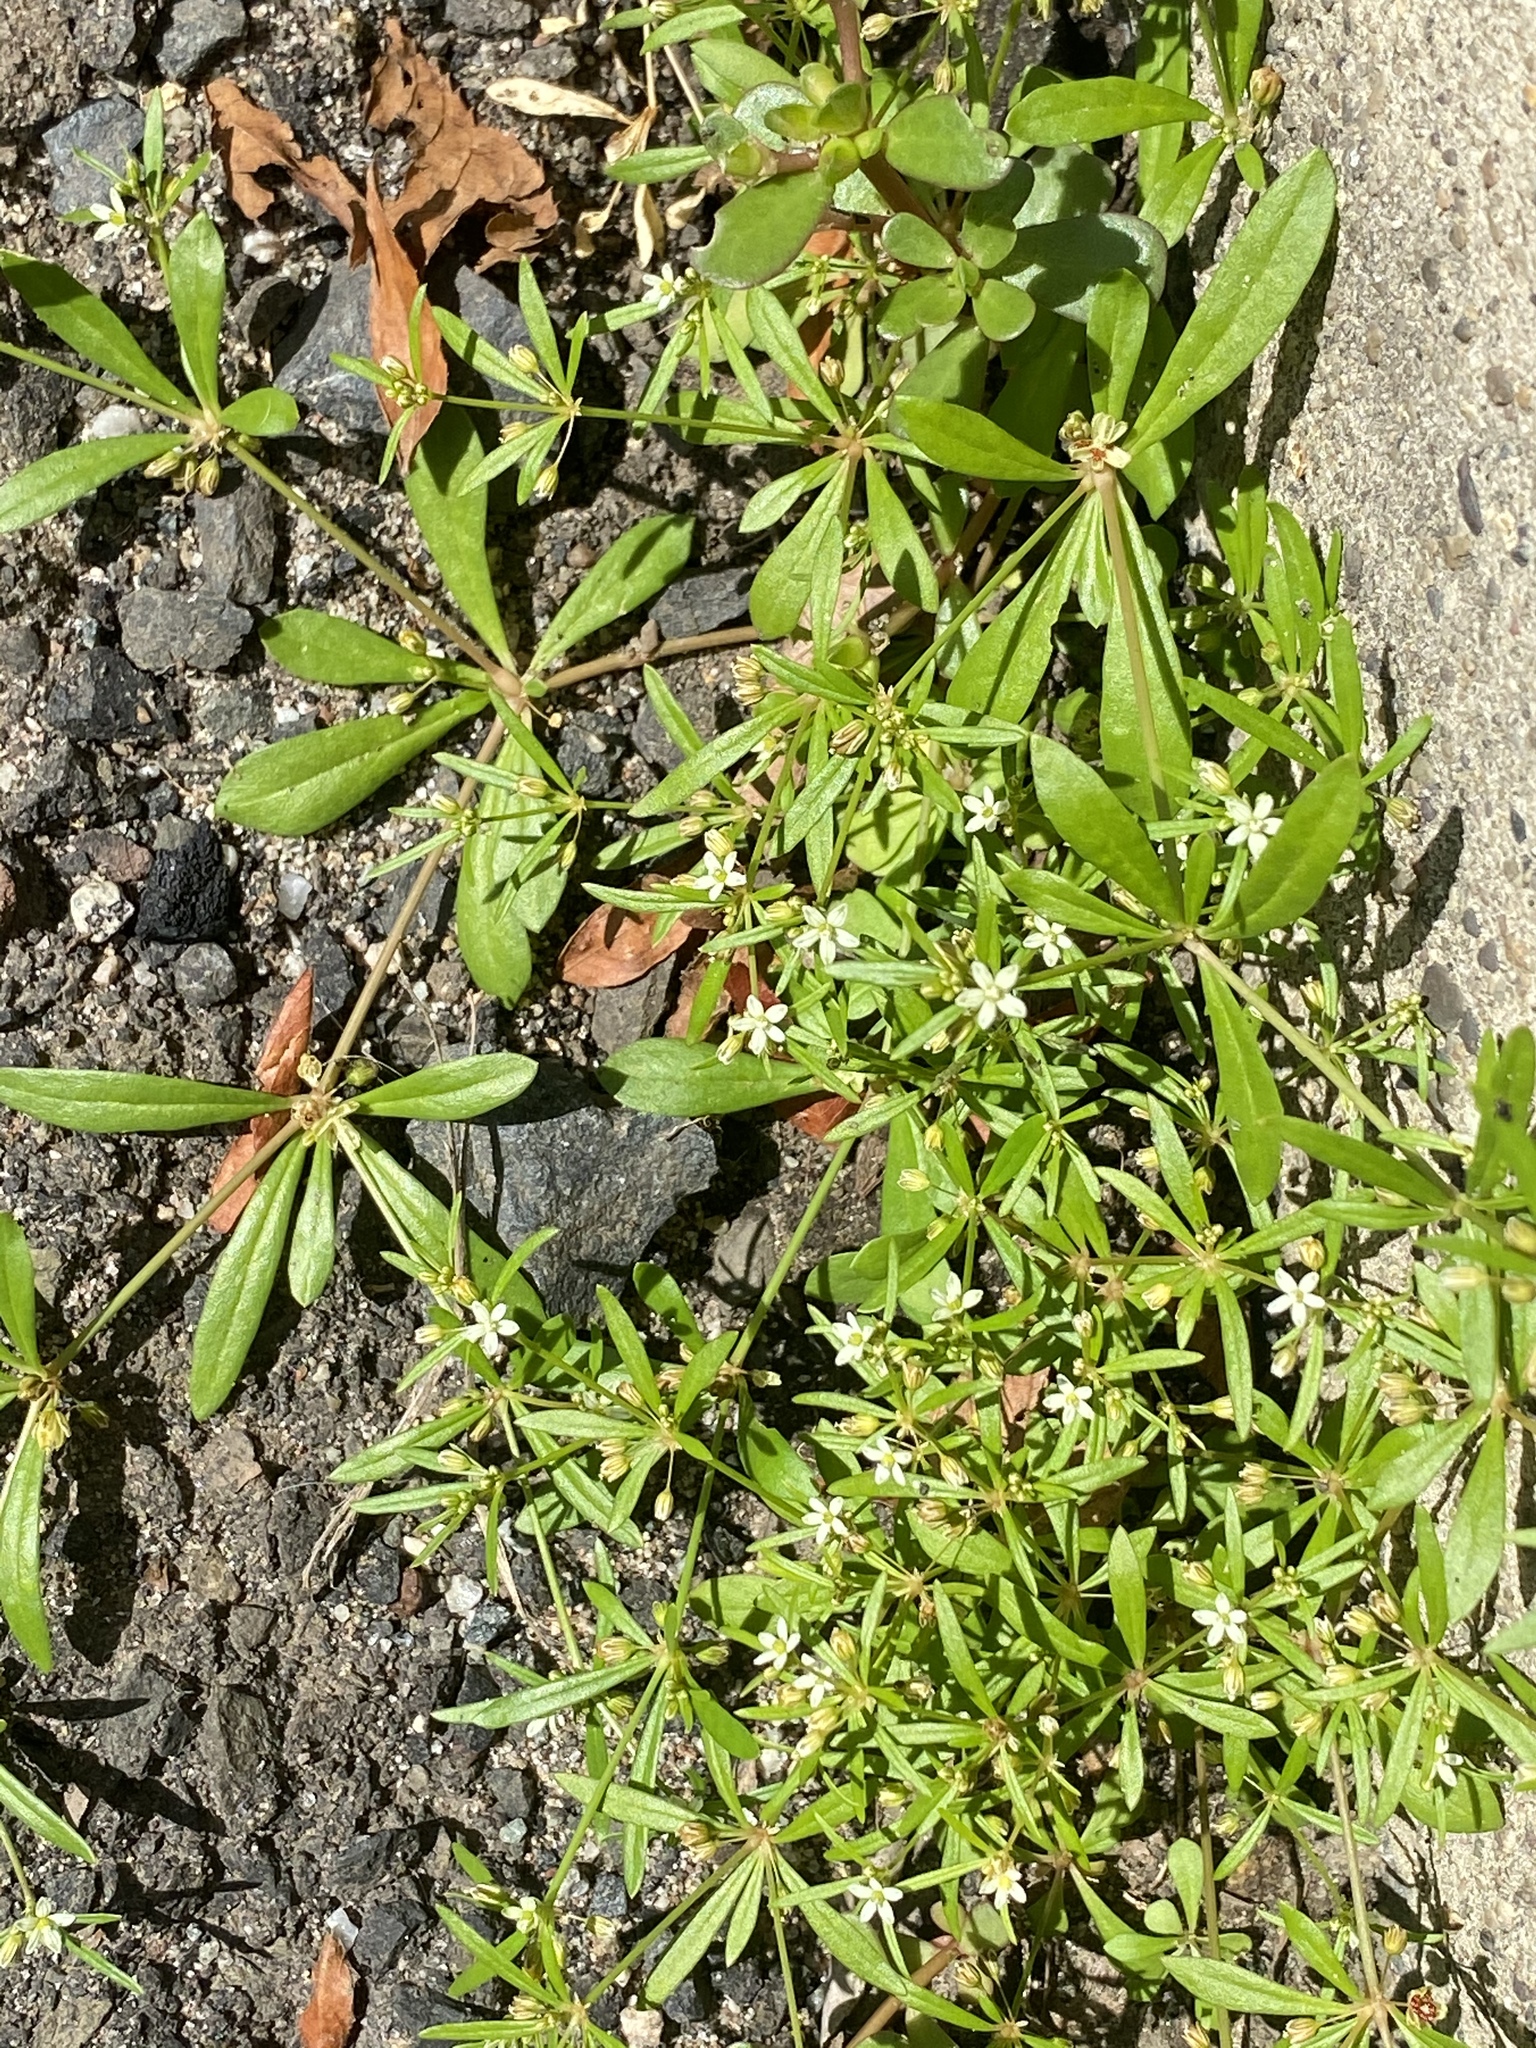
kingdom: Plantae
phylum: Tracheophyta
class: Magnoliopsida
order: Caryophyllales
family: Molluginaceae
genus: Mollugo
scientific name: Mollugo verticillata
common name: Green carpetweed
